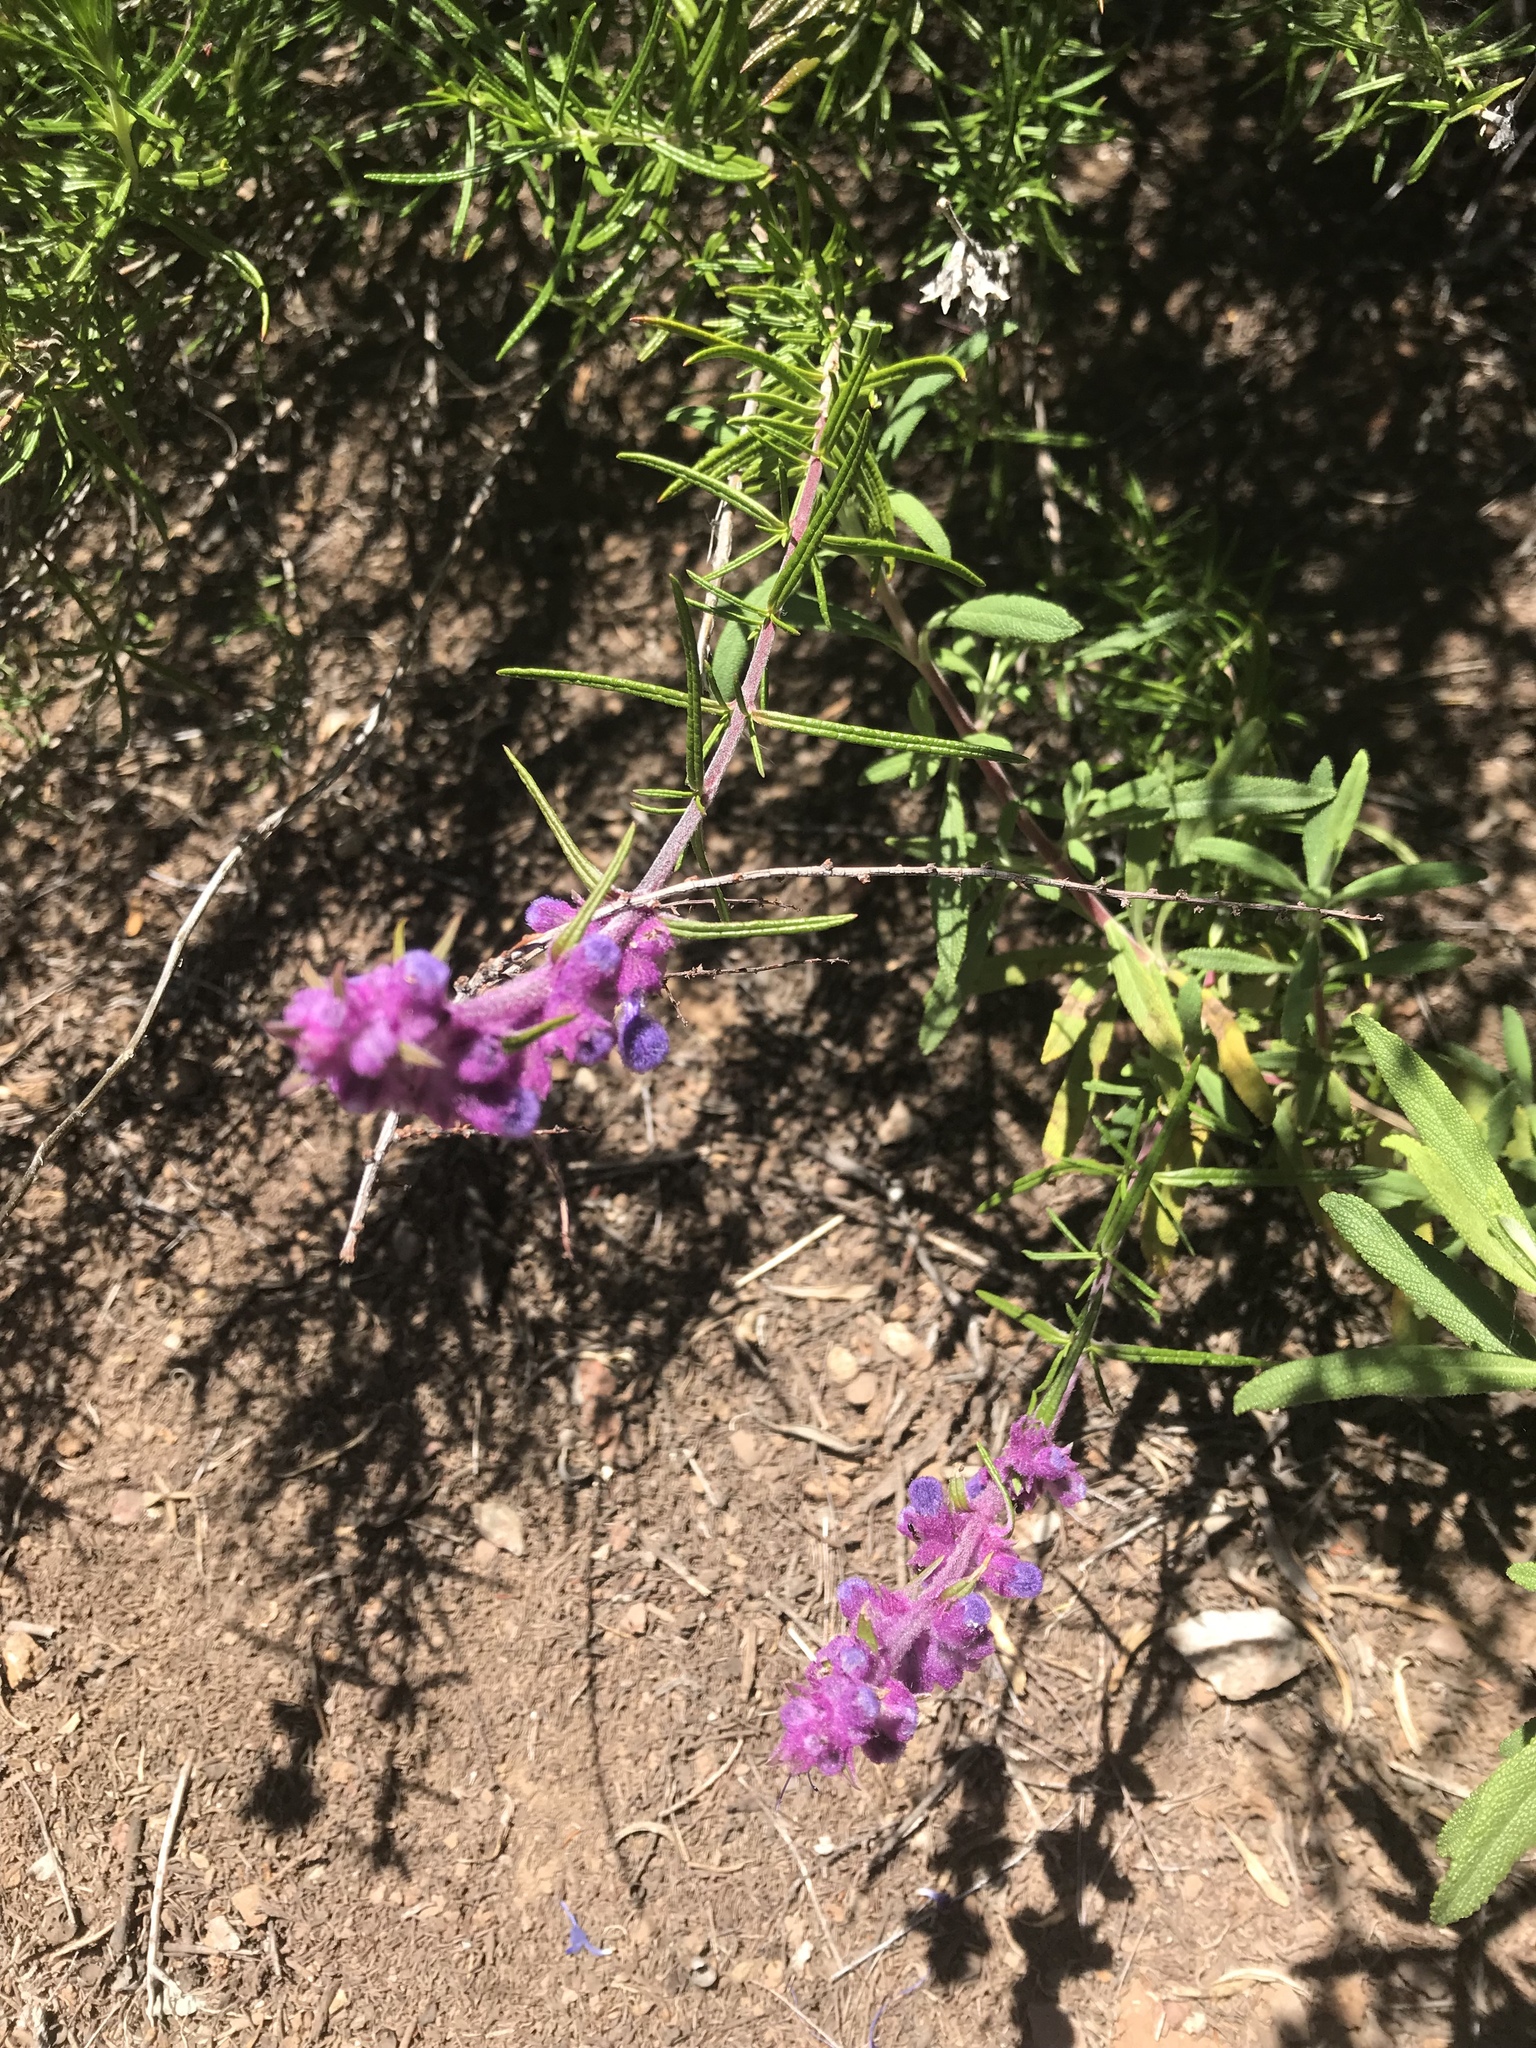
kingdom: Plantae
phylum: Tracheophyta
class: Magnoliopsida
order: Lamiales
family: Lamiaceae
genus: Trichostema
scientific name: Trichostema lanatum
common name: Woolly bluecurls
